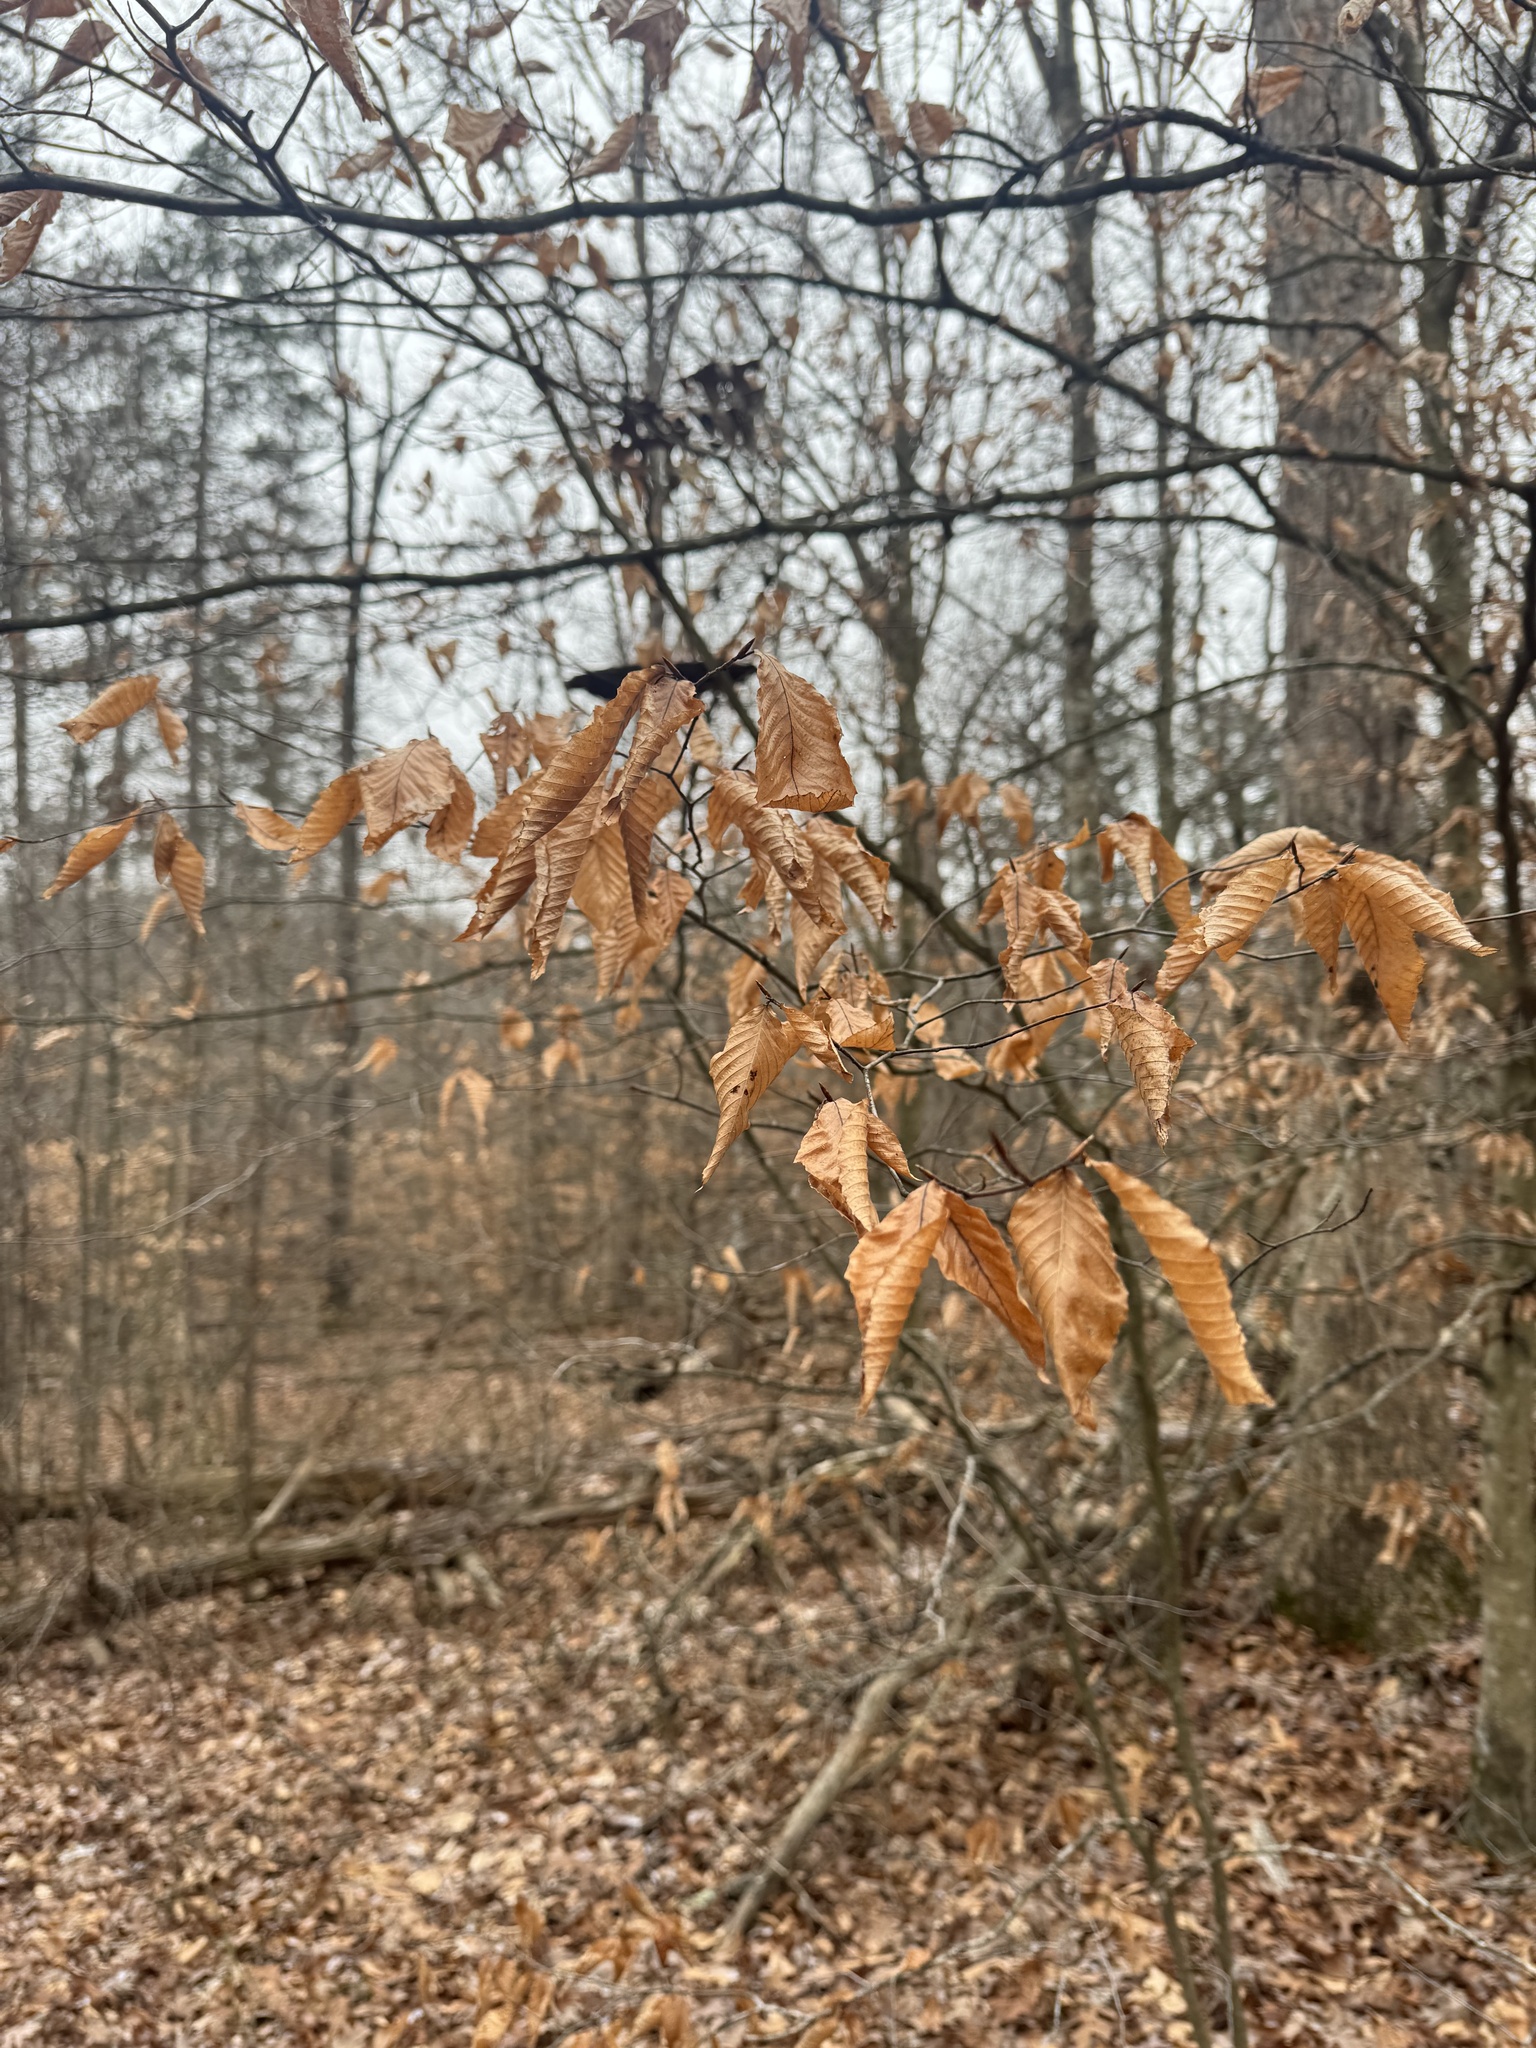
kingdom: Plantae
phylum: Tracheophyta
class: Magnoliopsida
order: Fagales
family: Fagaceae
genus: Fagus
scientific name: Fagus grandifolia
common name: American beech
